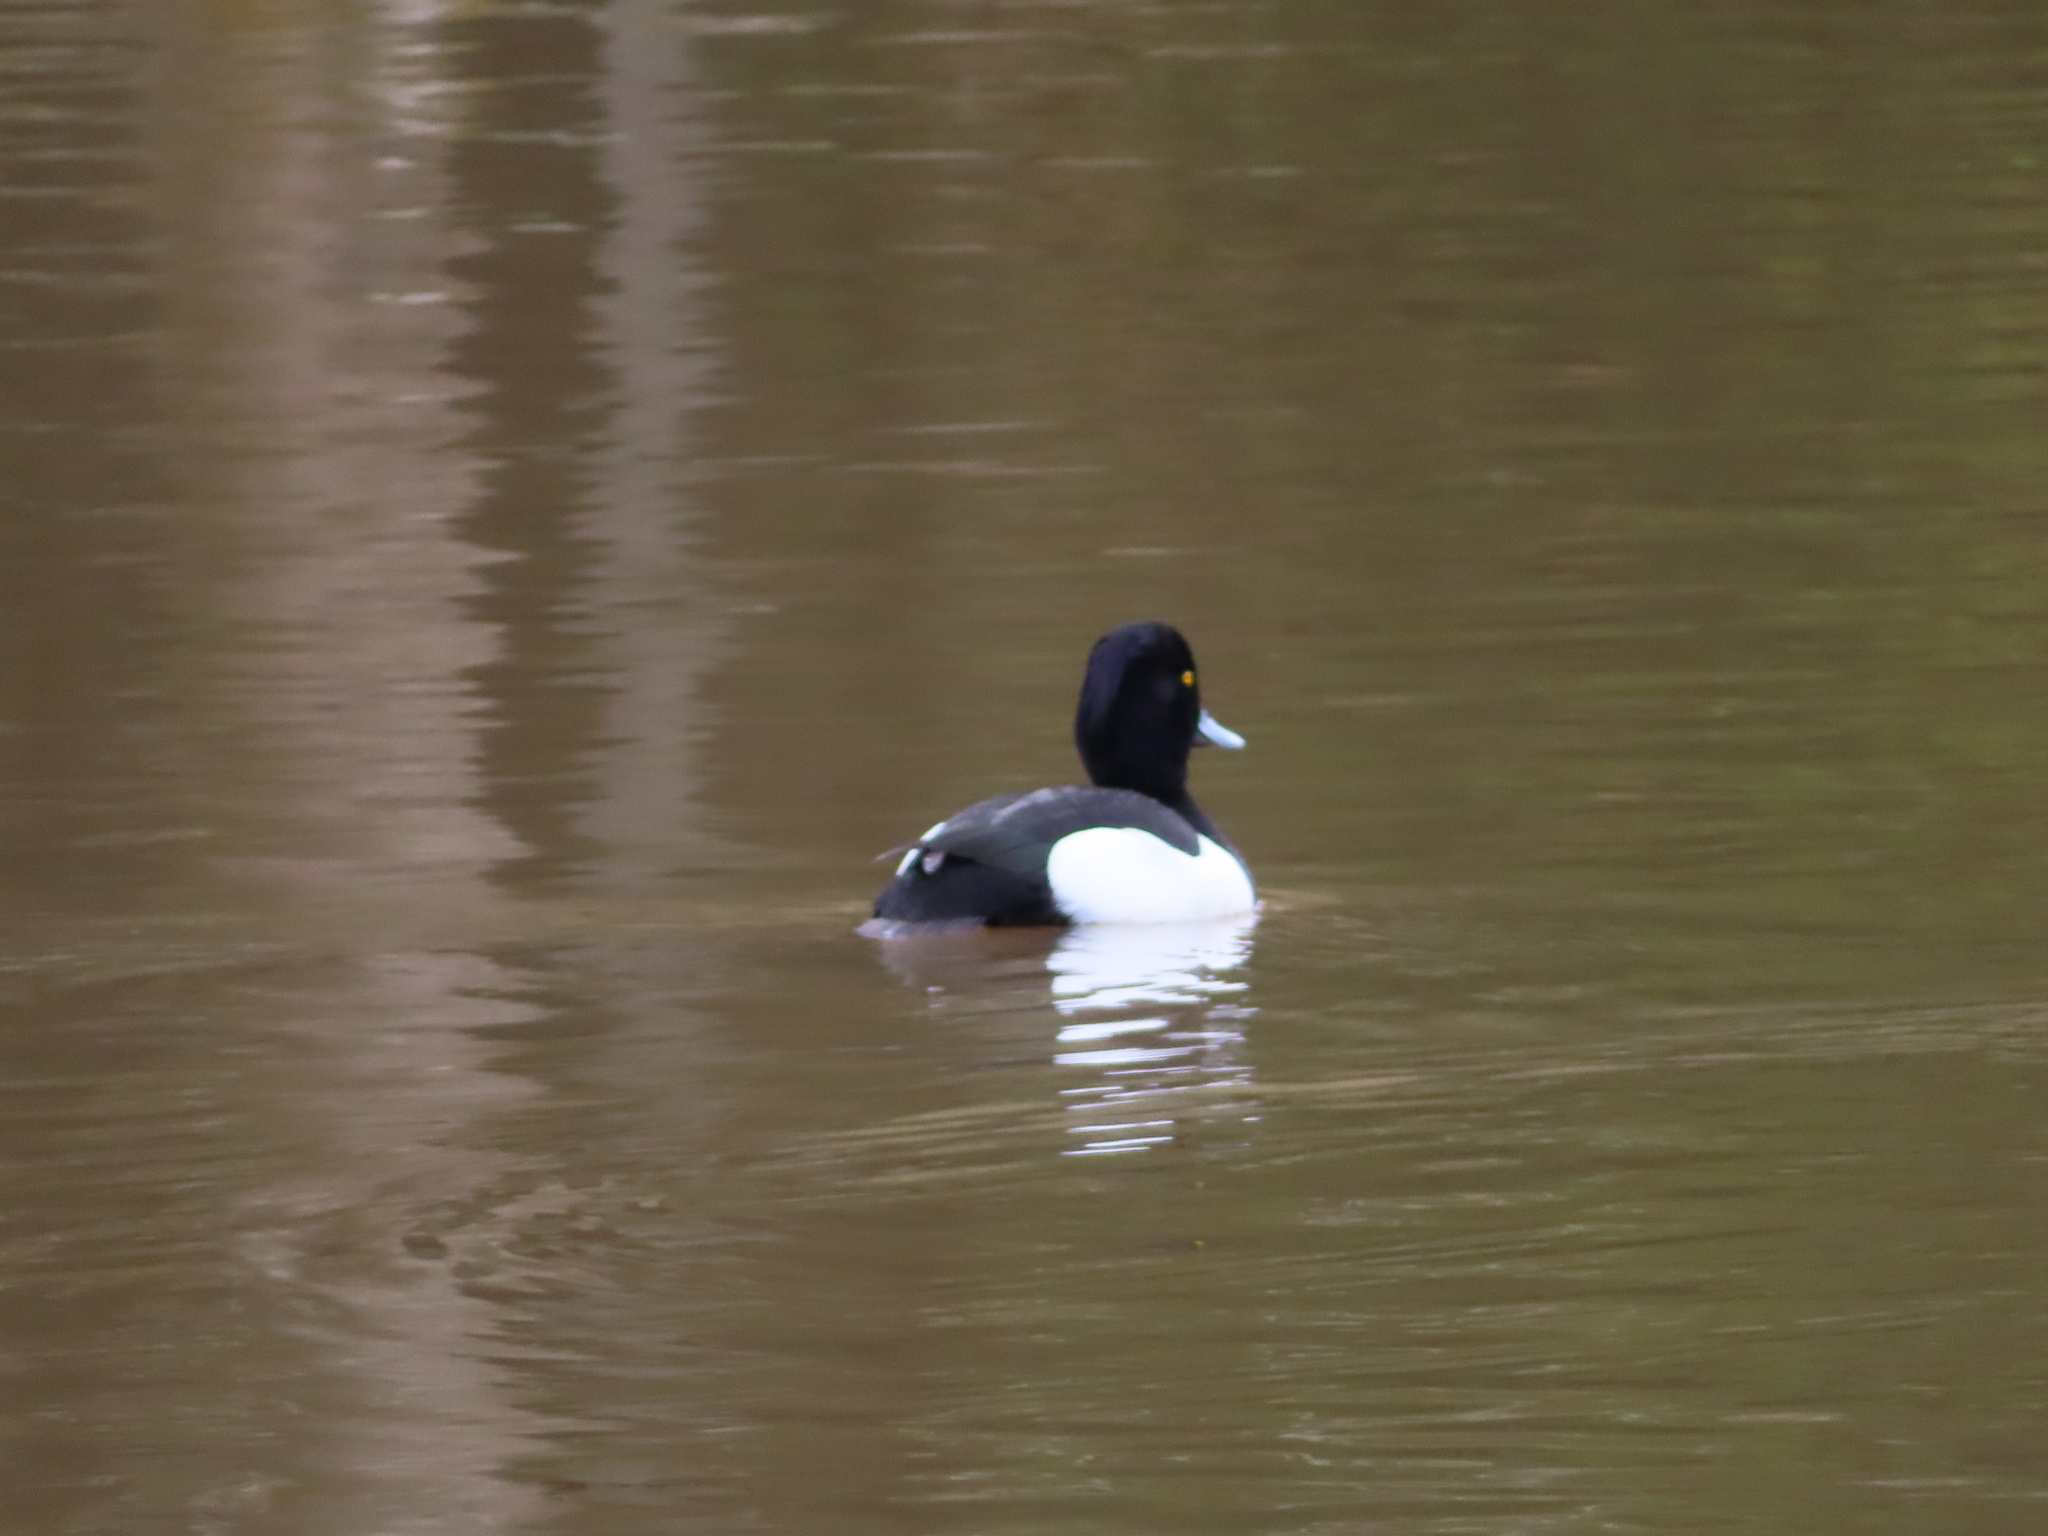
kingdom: Animalia
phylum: Chordata
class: Aves
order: Anseriformes
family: Anatidae
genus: Aythya
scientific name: Aythya fuligula
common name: Tufted duck
